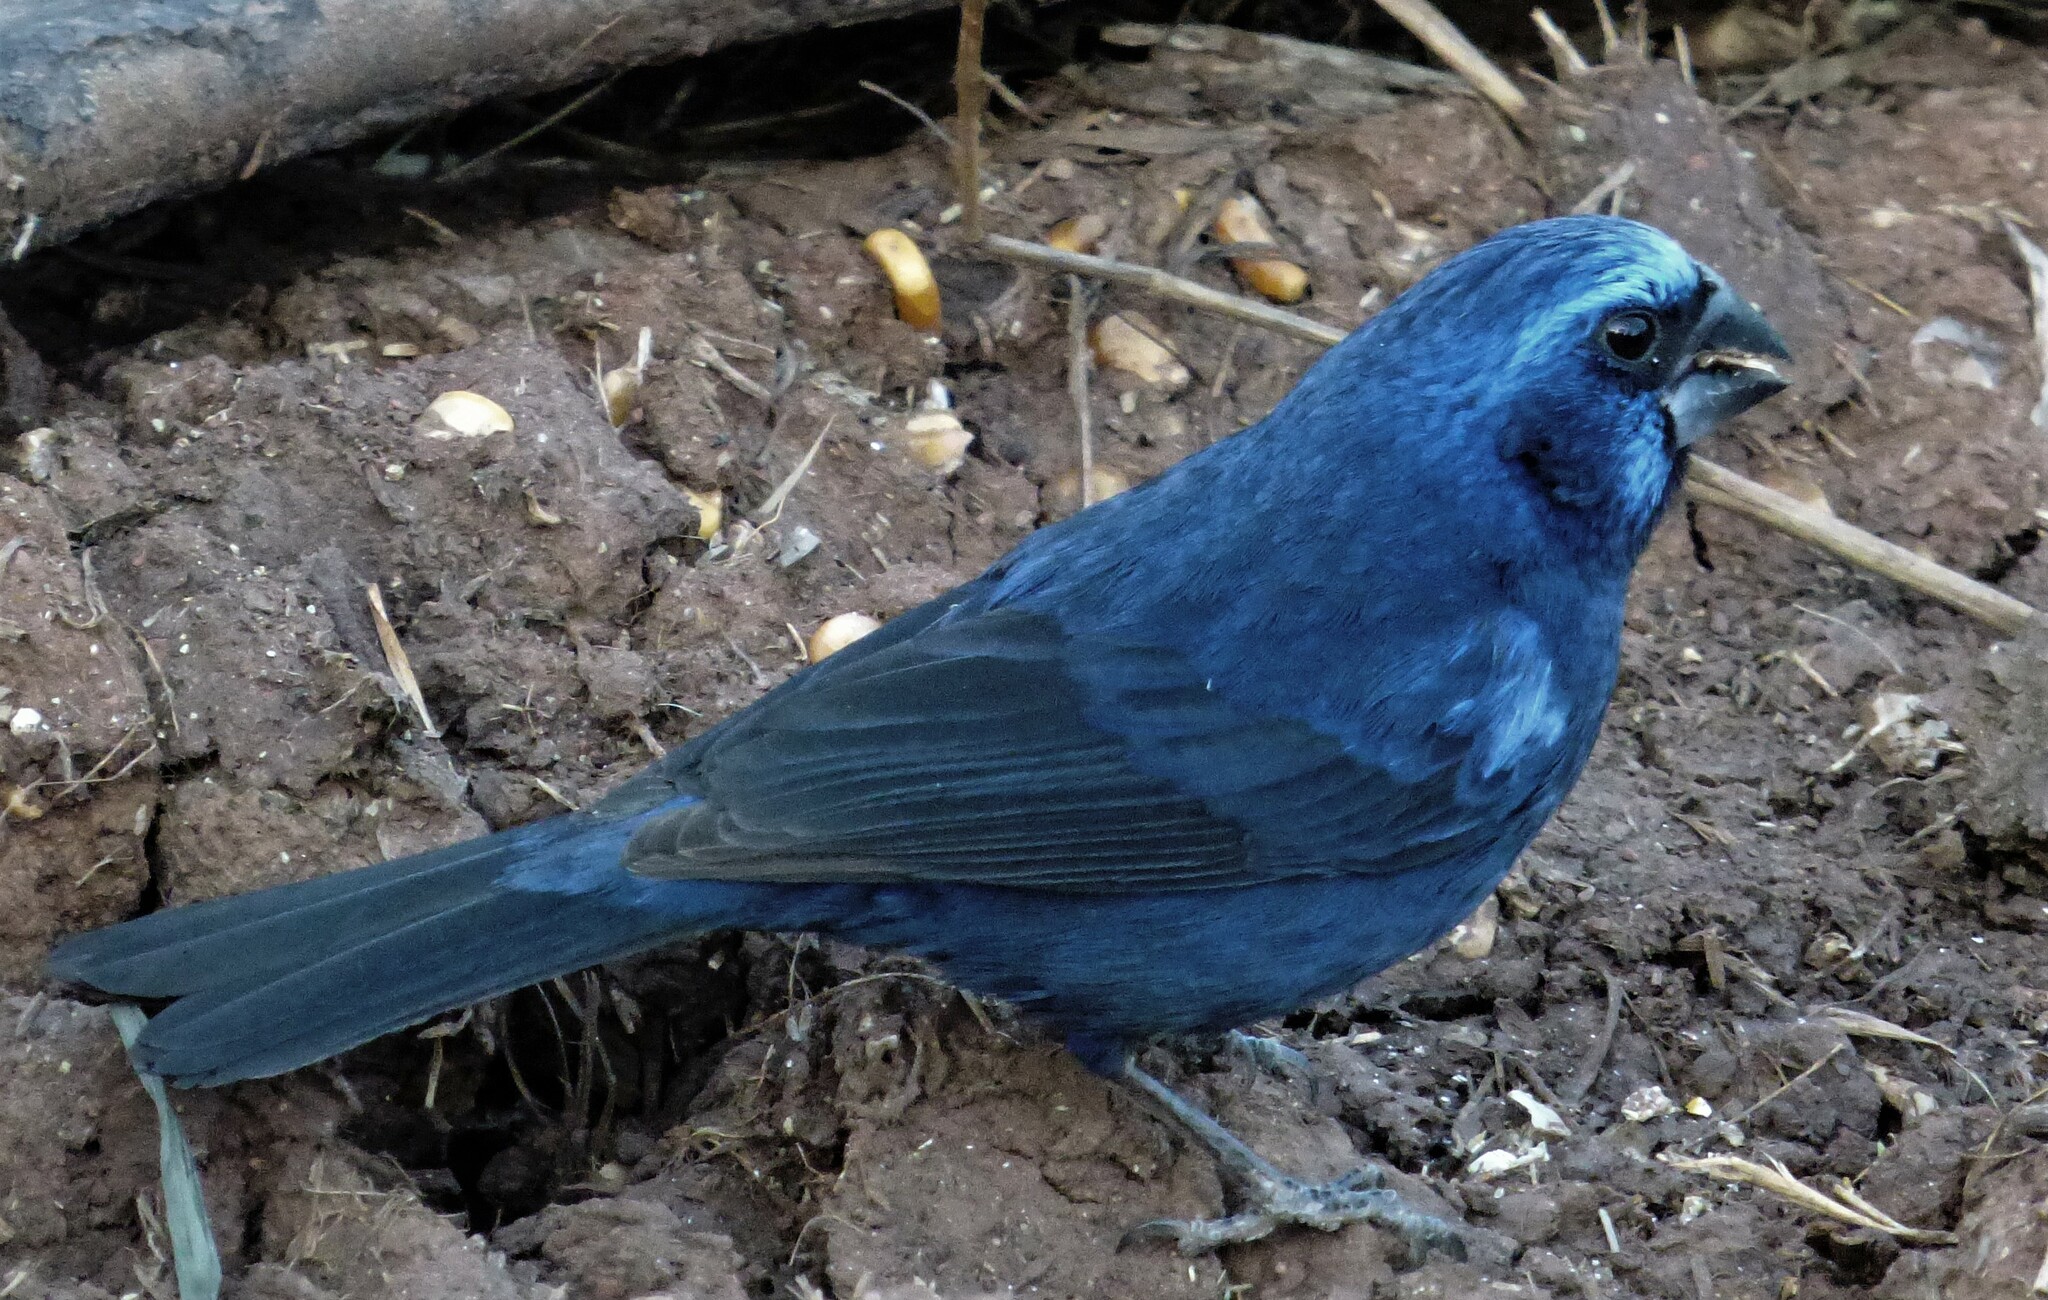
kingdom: Animalia
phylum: Chordata
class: Aves
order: Passeriformes
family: Cardinalidae
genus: Cyanoloxia
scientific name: Cyanoloxia brissonii
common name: Ultramarine grosbeak
